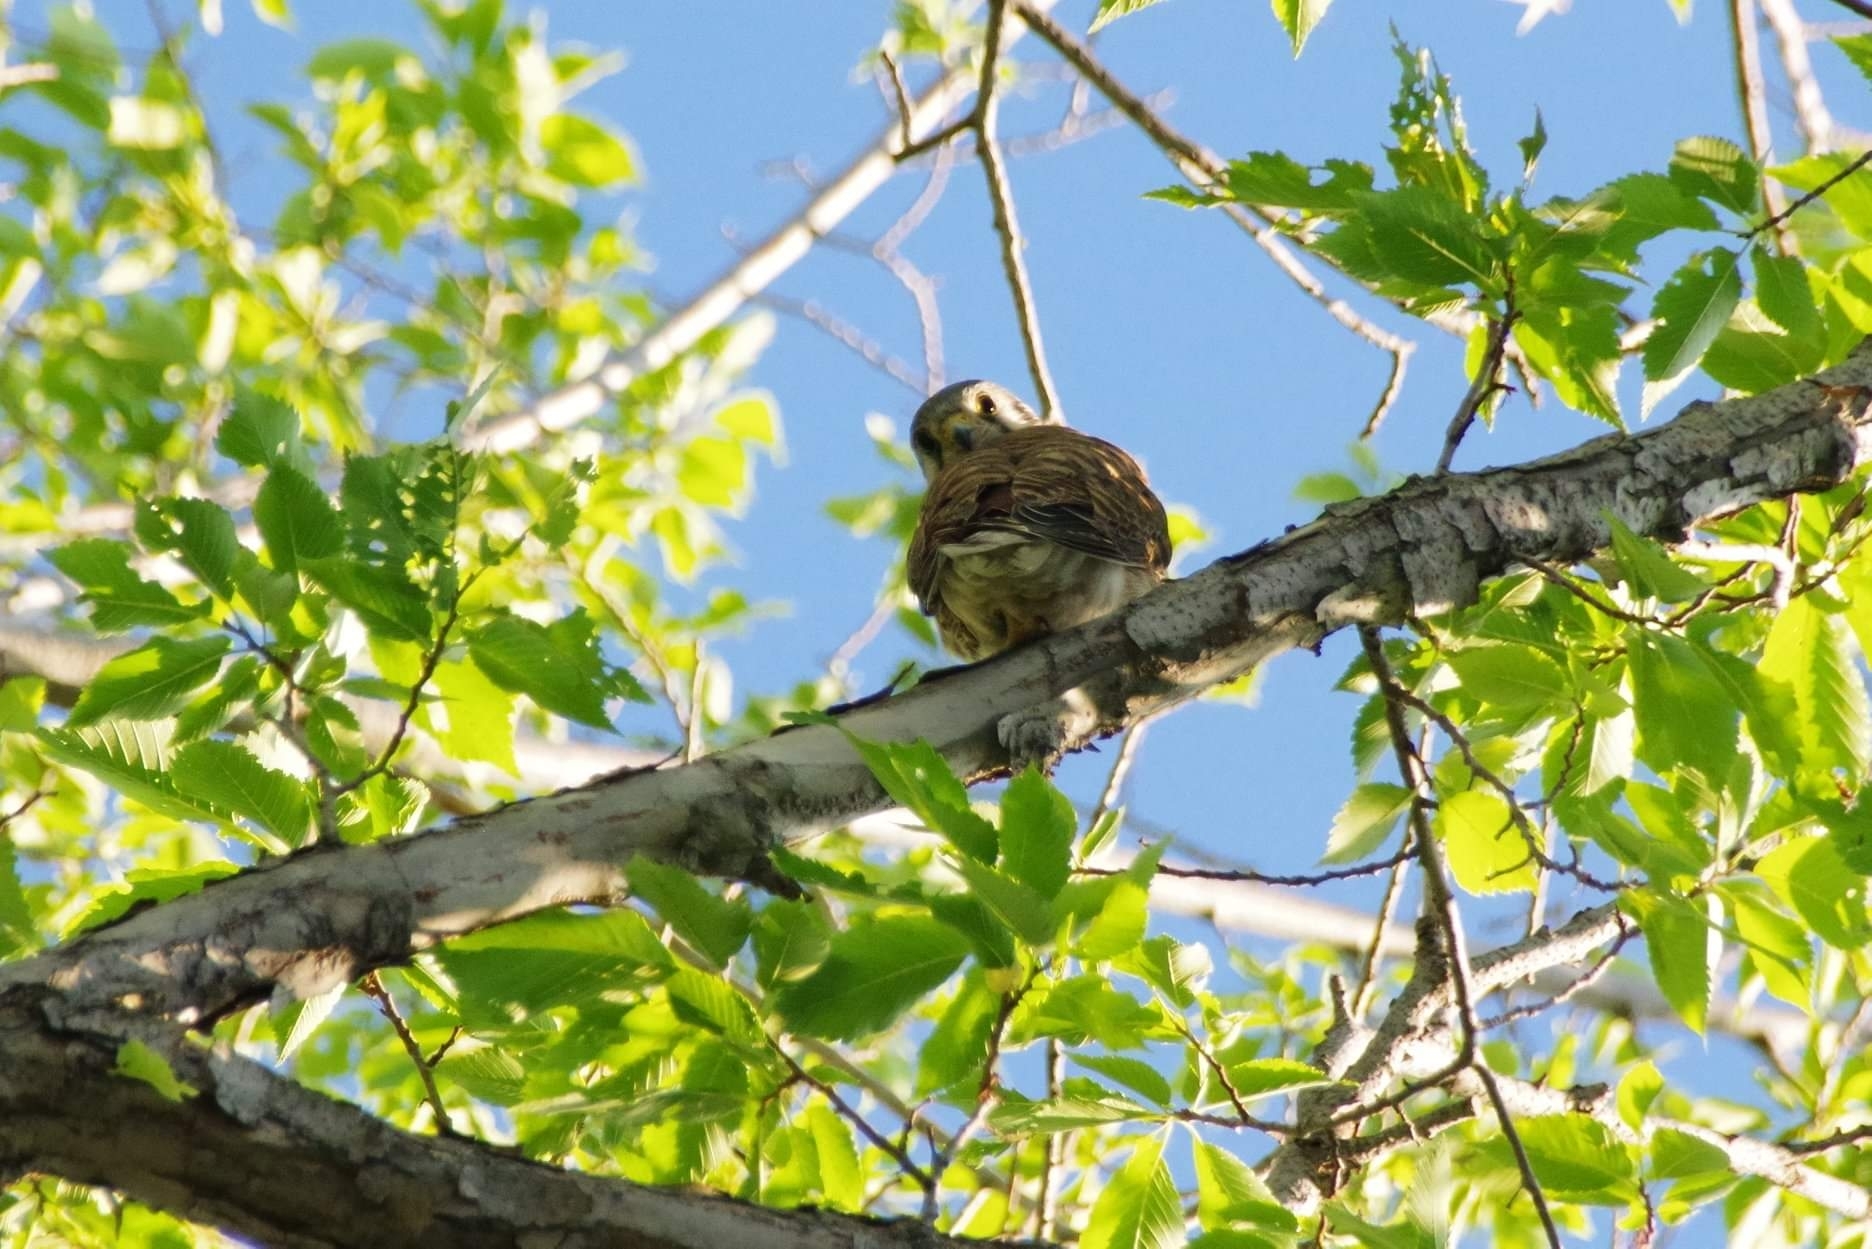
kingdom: Animalia
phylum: Chordata
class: Aves
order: Falconiformes
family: Falconidae
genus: Falco
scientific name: Falco sparverius
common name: American kestrel
